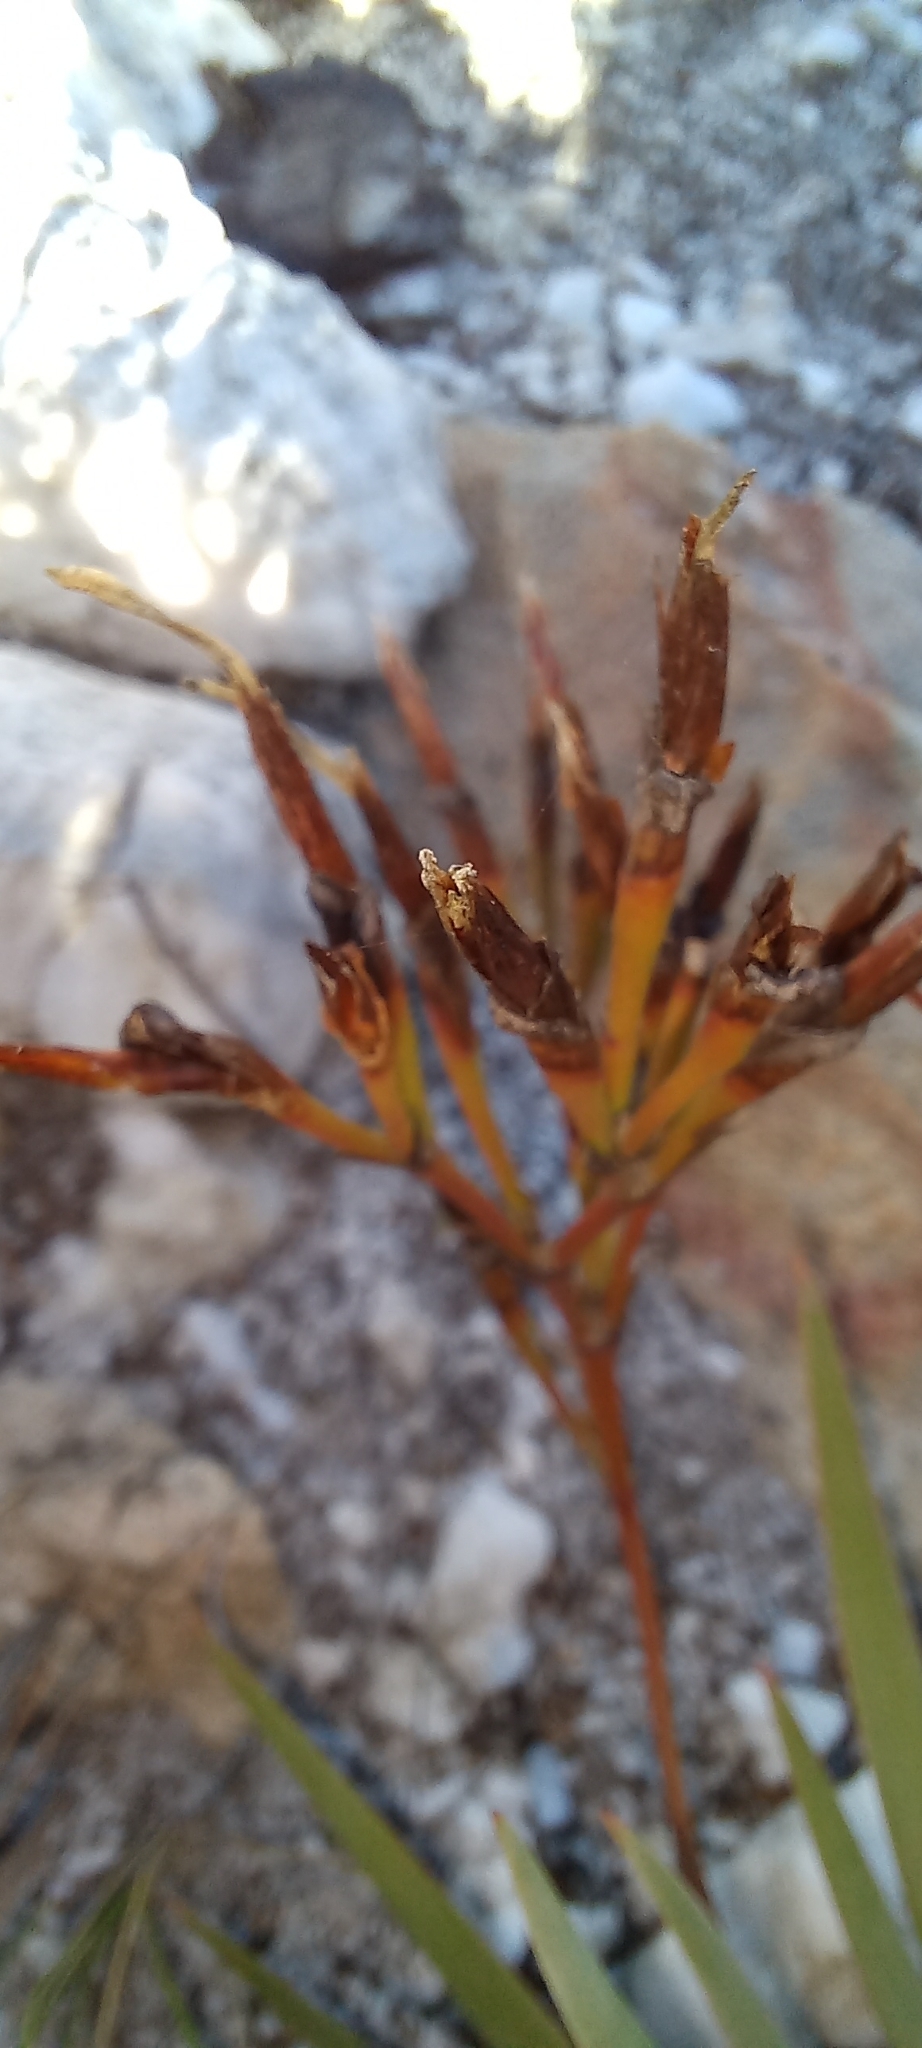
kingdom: Plantae
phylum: Tracheophyta
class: Liliopsida
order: Asparagales
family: Iridaceae
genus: Nivenia
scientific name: Nivenia stokoei
